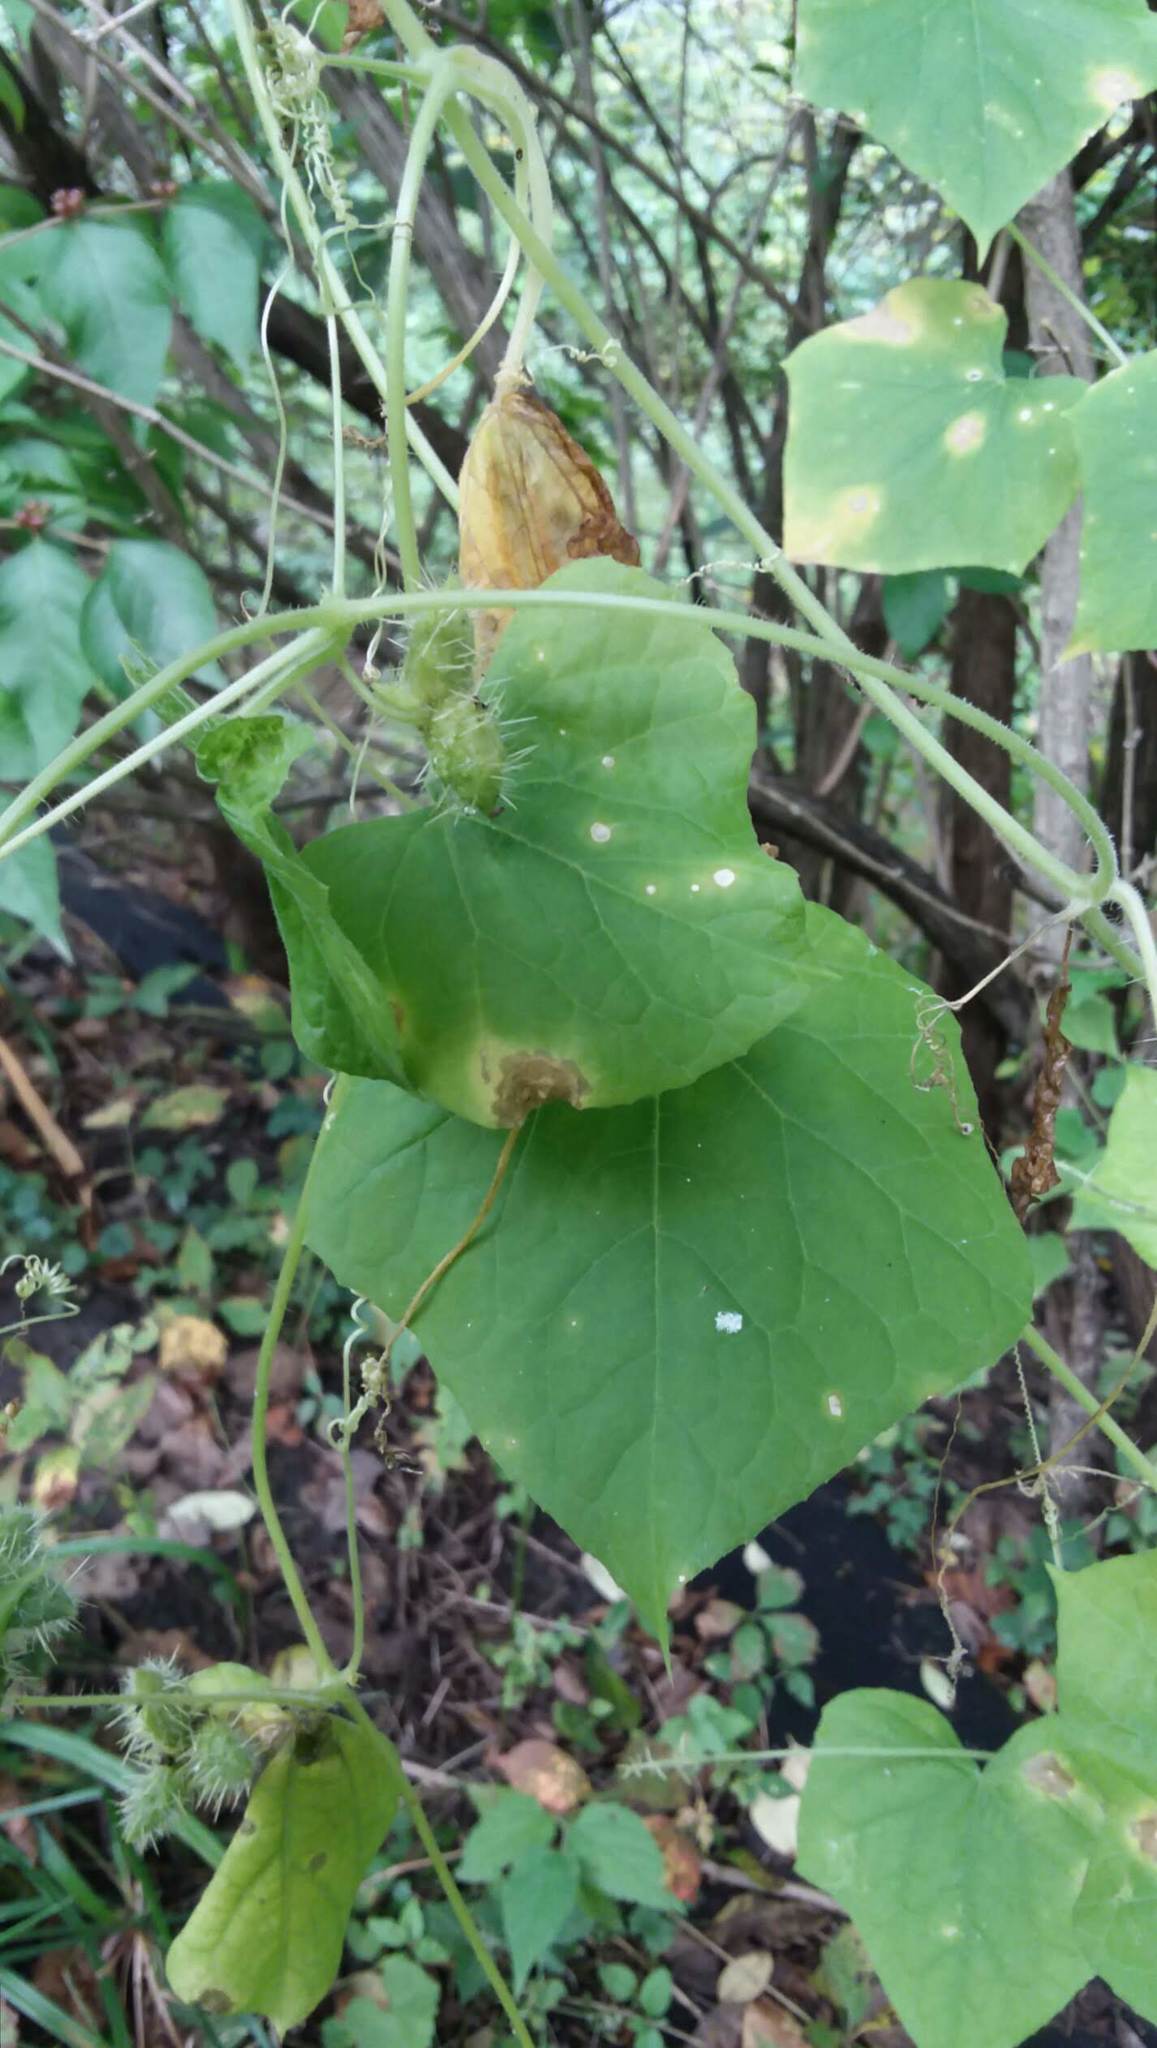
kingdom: Plantae
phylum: Tracheophyta
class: Magnoliopsida
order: Cucurbitales
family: Cucurbitaceae
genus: Sicyos
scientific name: Sicyos angulatus
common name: Angled burr cucumber
